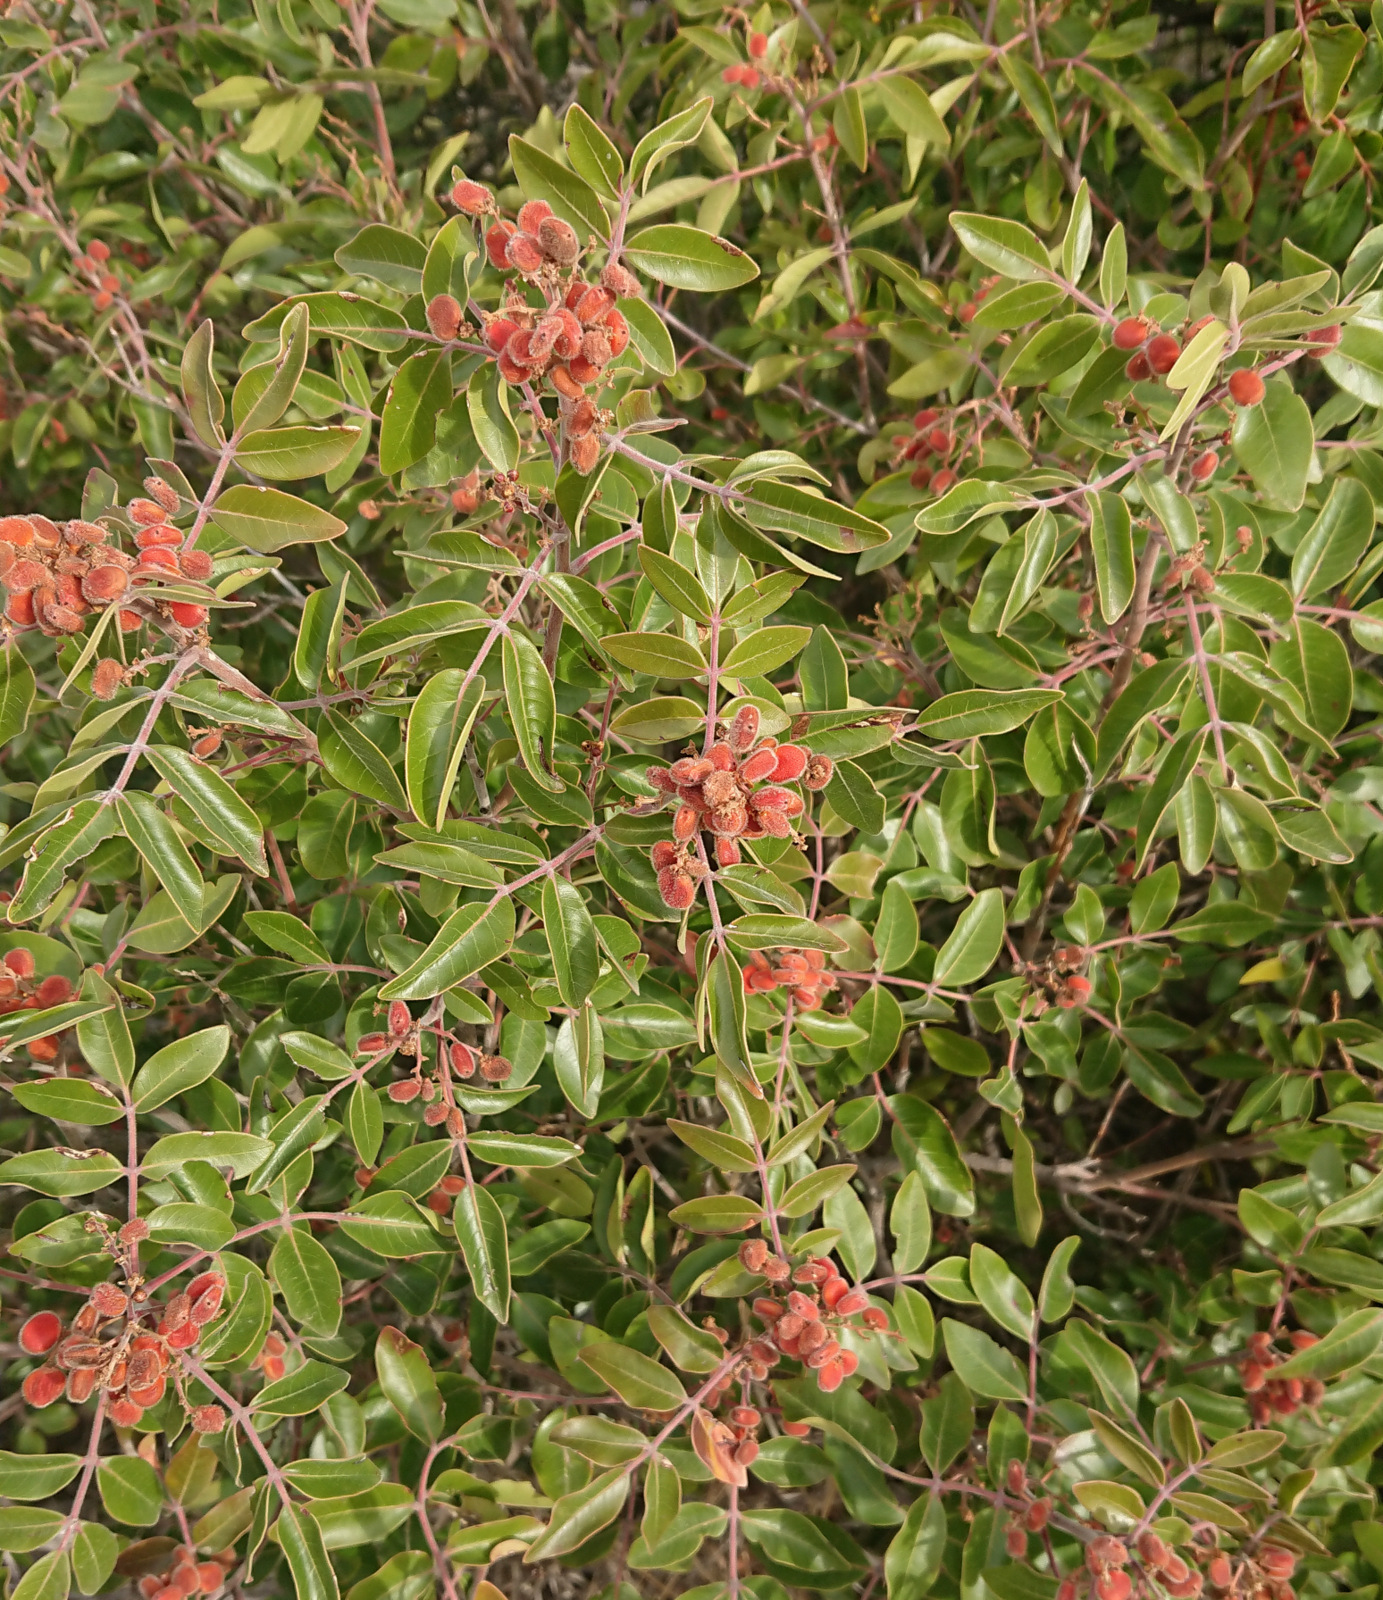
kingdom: Plantae
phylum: Tracheophyta
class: Magnoliopsida
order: Sapindales
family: Anacardiaceae
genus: Rhus
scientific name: Rhus virens
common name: Evergreen sumac
